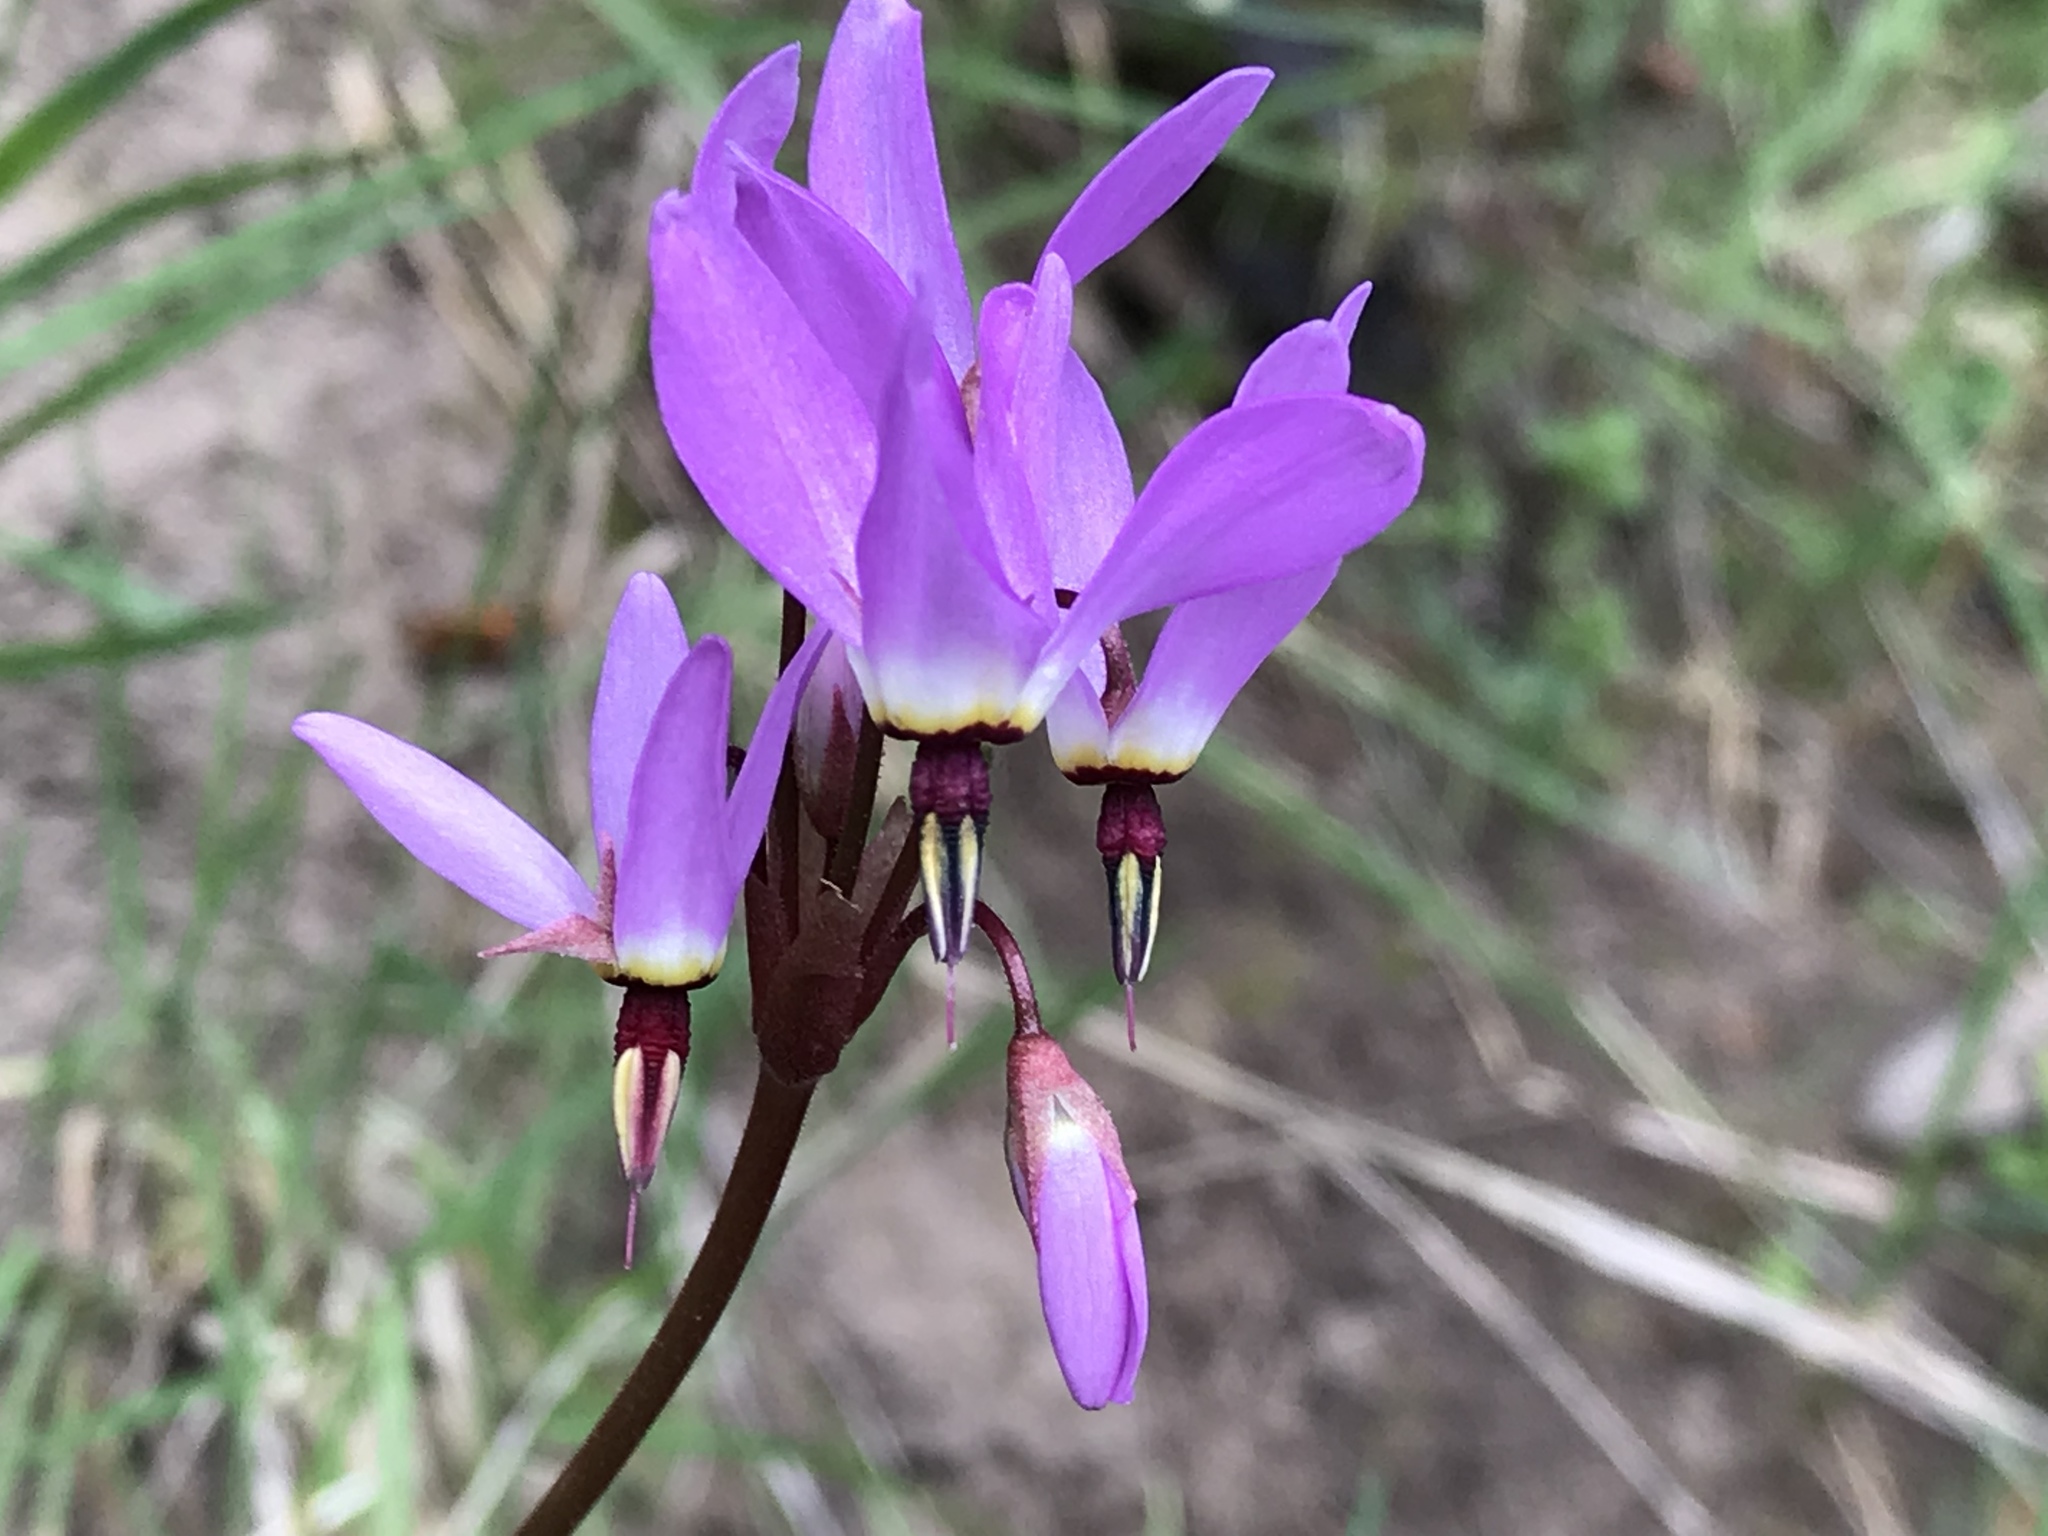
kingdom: Plantae
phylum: Tracheophyta
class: Magnoliopsida
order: Ericales
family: Primulaceae
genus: Dodecatheon
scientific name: Dodecatheon hendersonii
